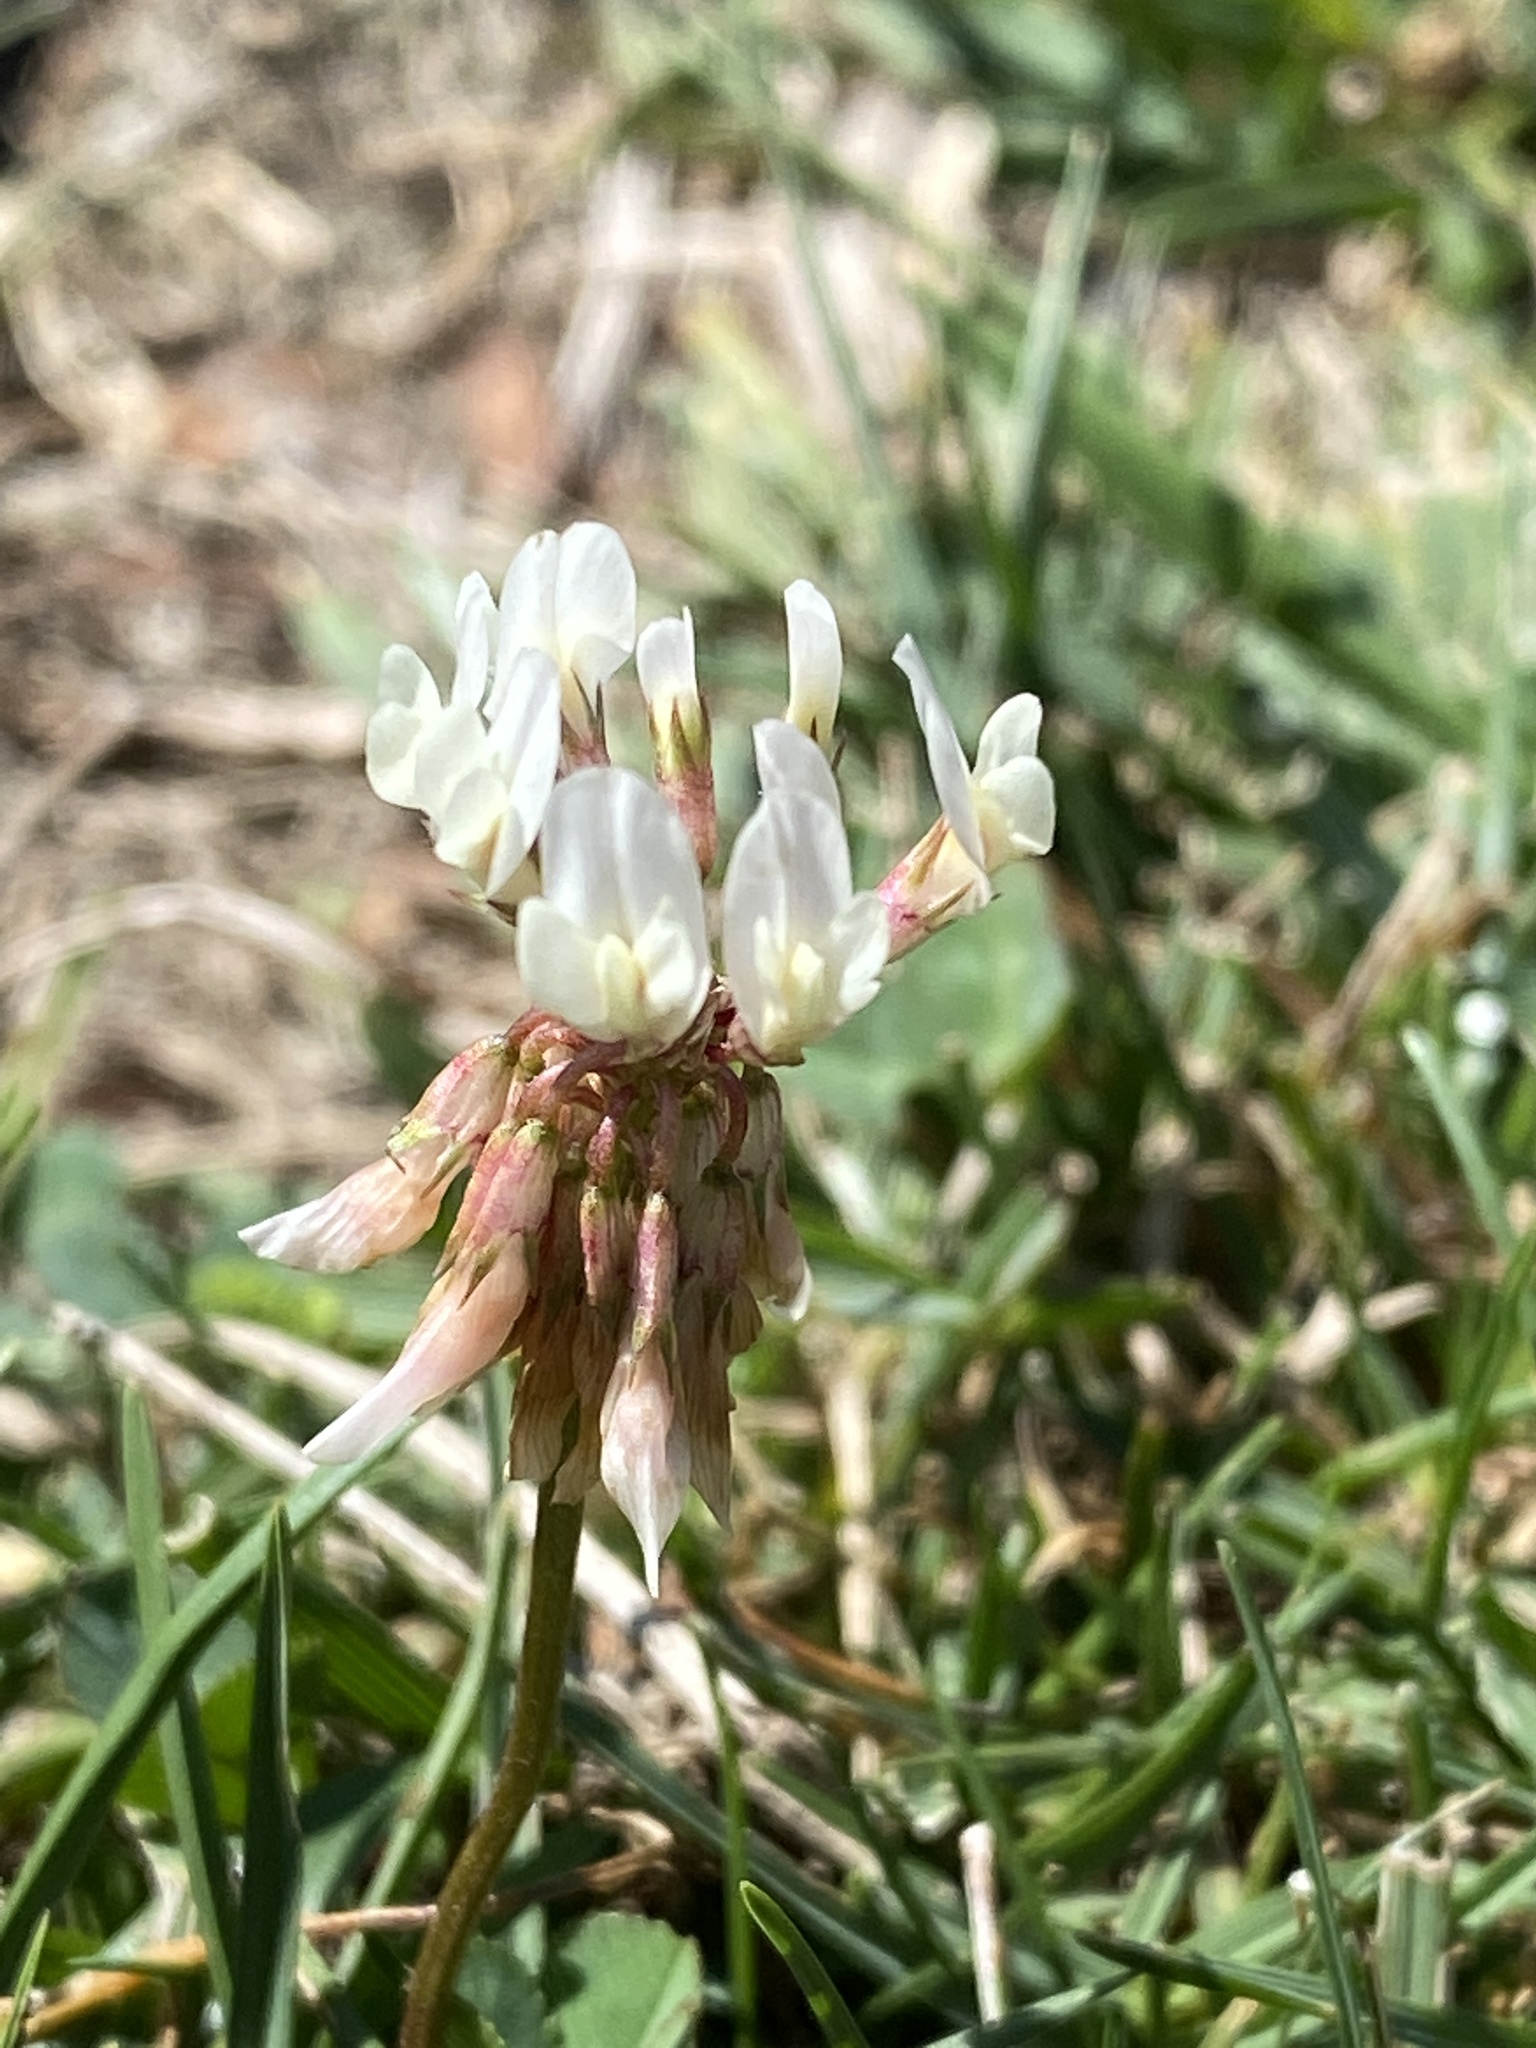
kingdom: Plantae
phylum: Tracheophyta
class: Magnoliopsida
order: Fabales
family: Fabaceae
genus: Trifolium
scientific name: Trifolium repens
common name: White clover
